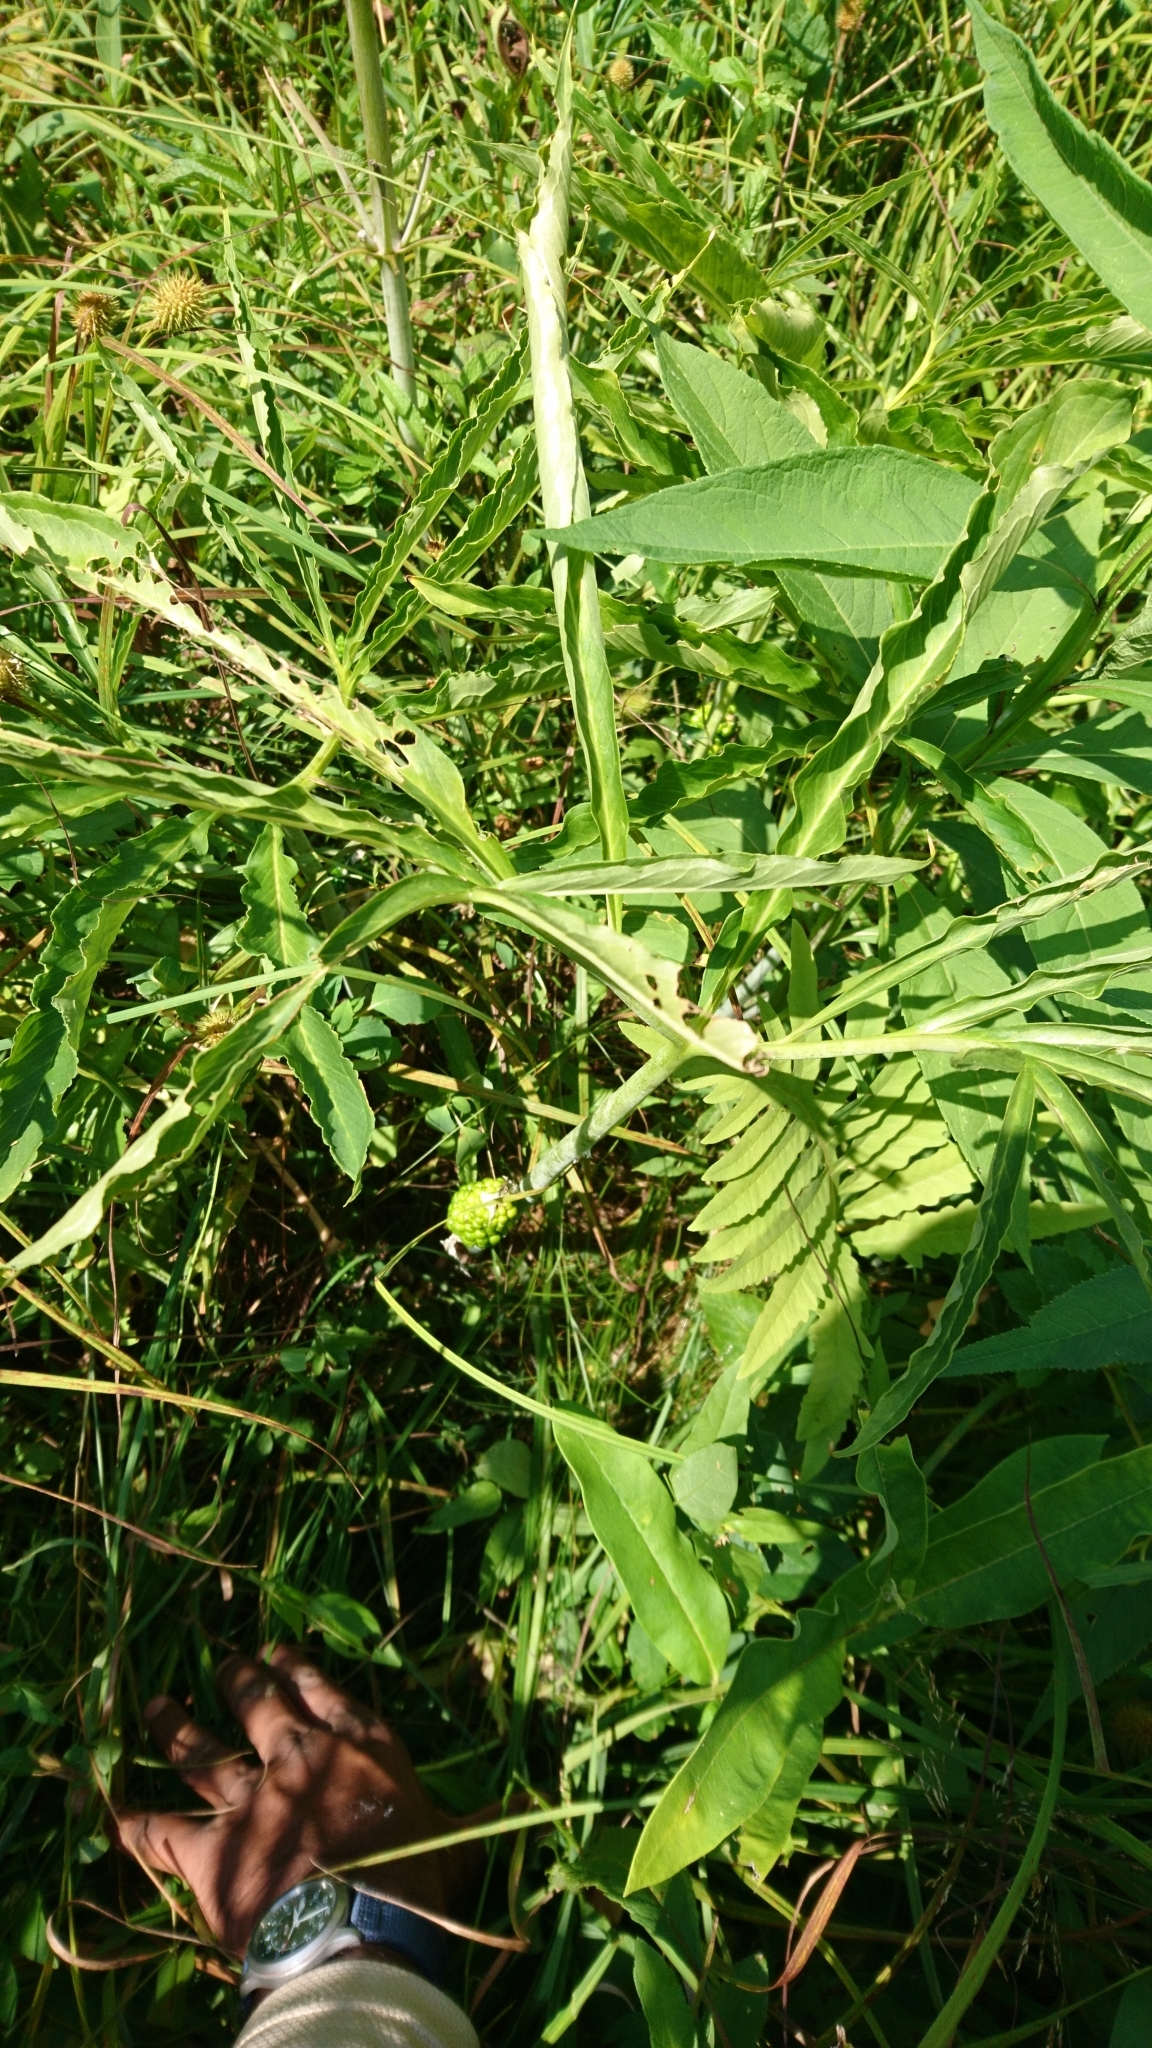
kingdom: Plantae
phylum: Tracheophyta
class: Liliopsida
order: Alismatales
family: Araceae
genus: Arisaema
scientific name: Arisaema dracontium
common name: Dragon-arum
